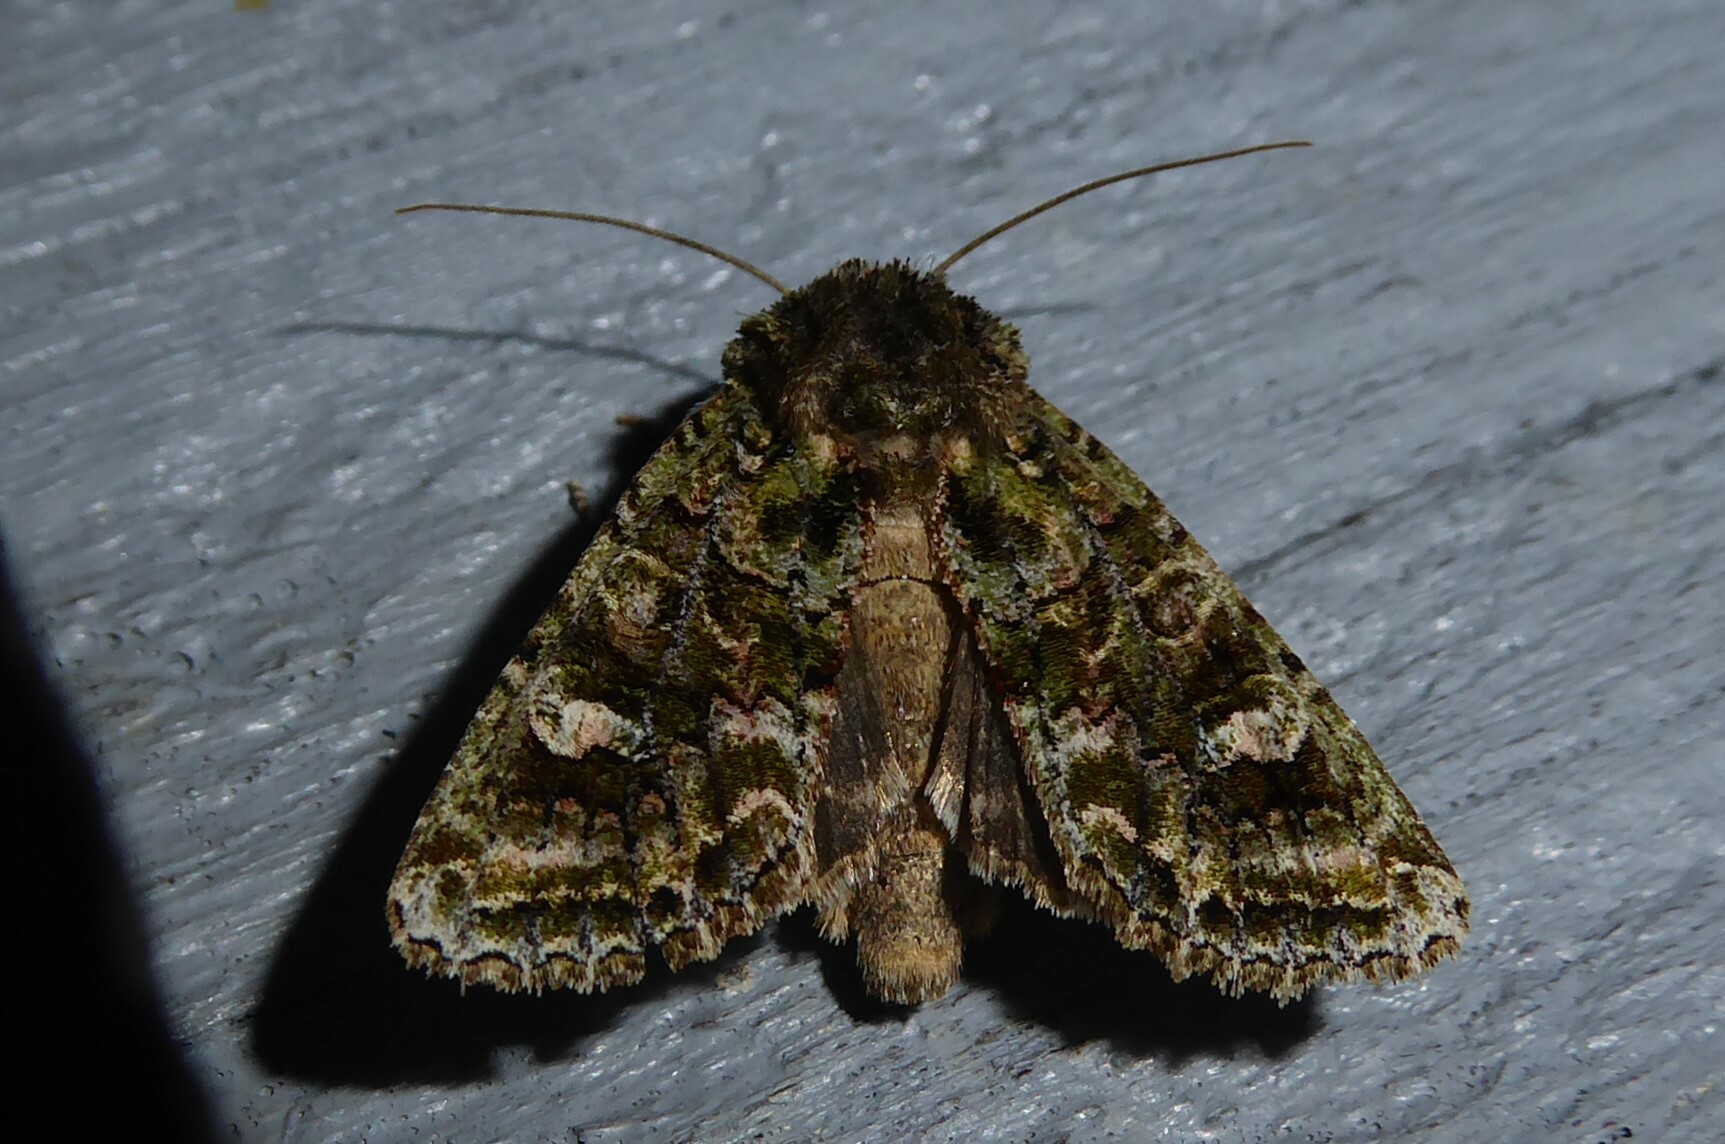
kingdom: Animalia
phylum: Arthropoda
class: Insecta
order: Lepidoptera
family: Noctuidae
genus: Ichneutica
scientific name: Ichneutica
